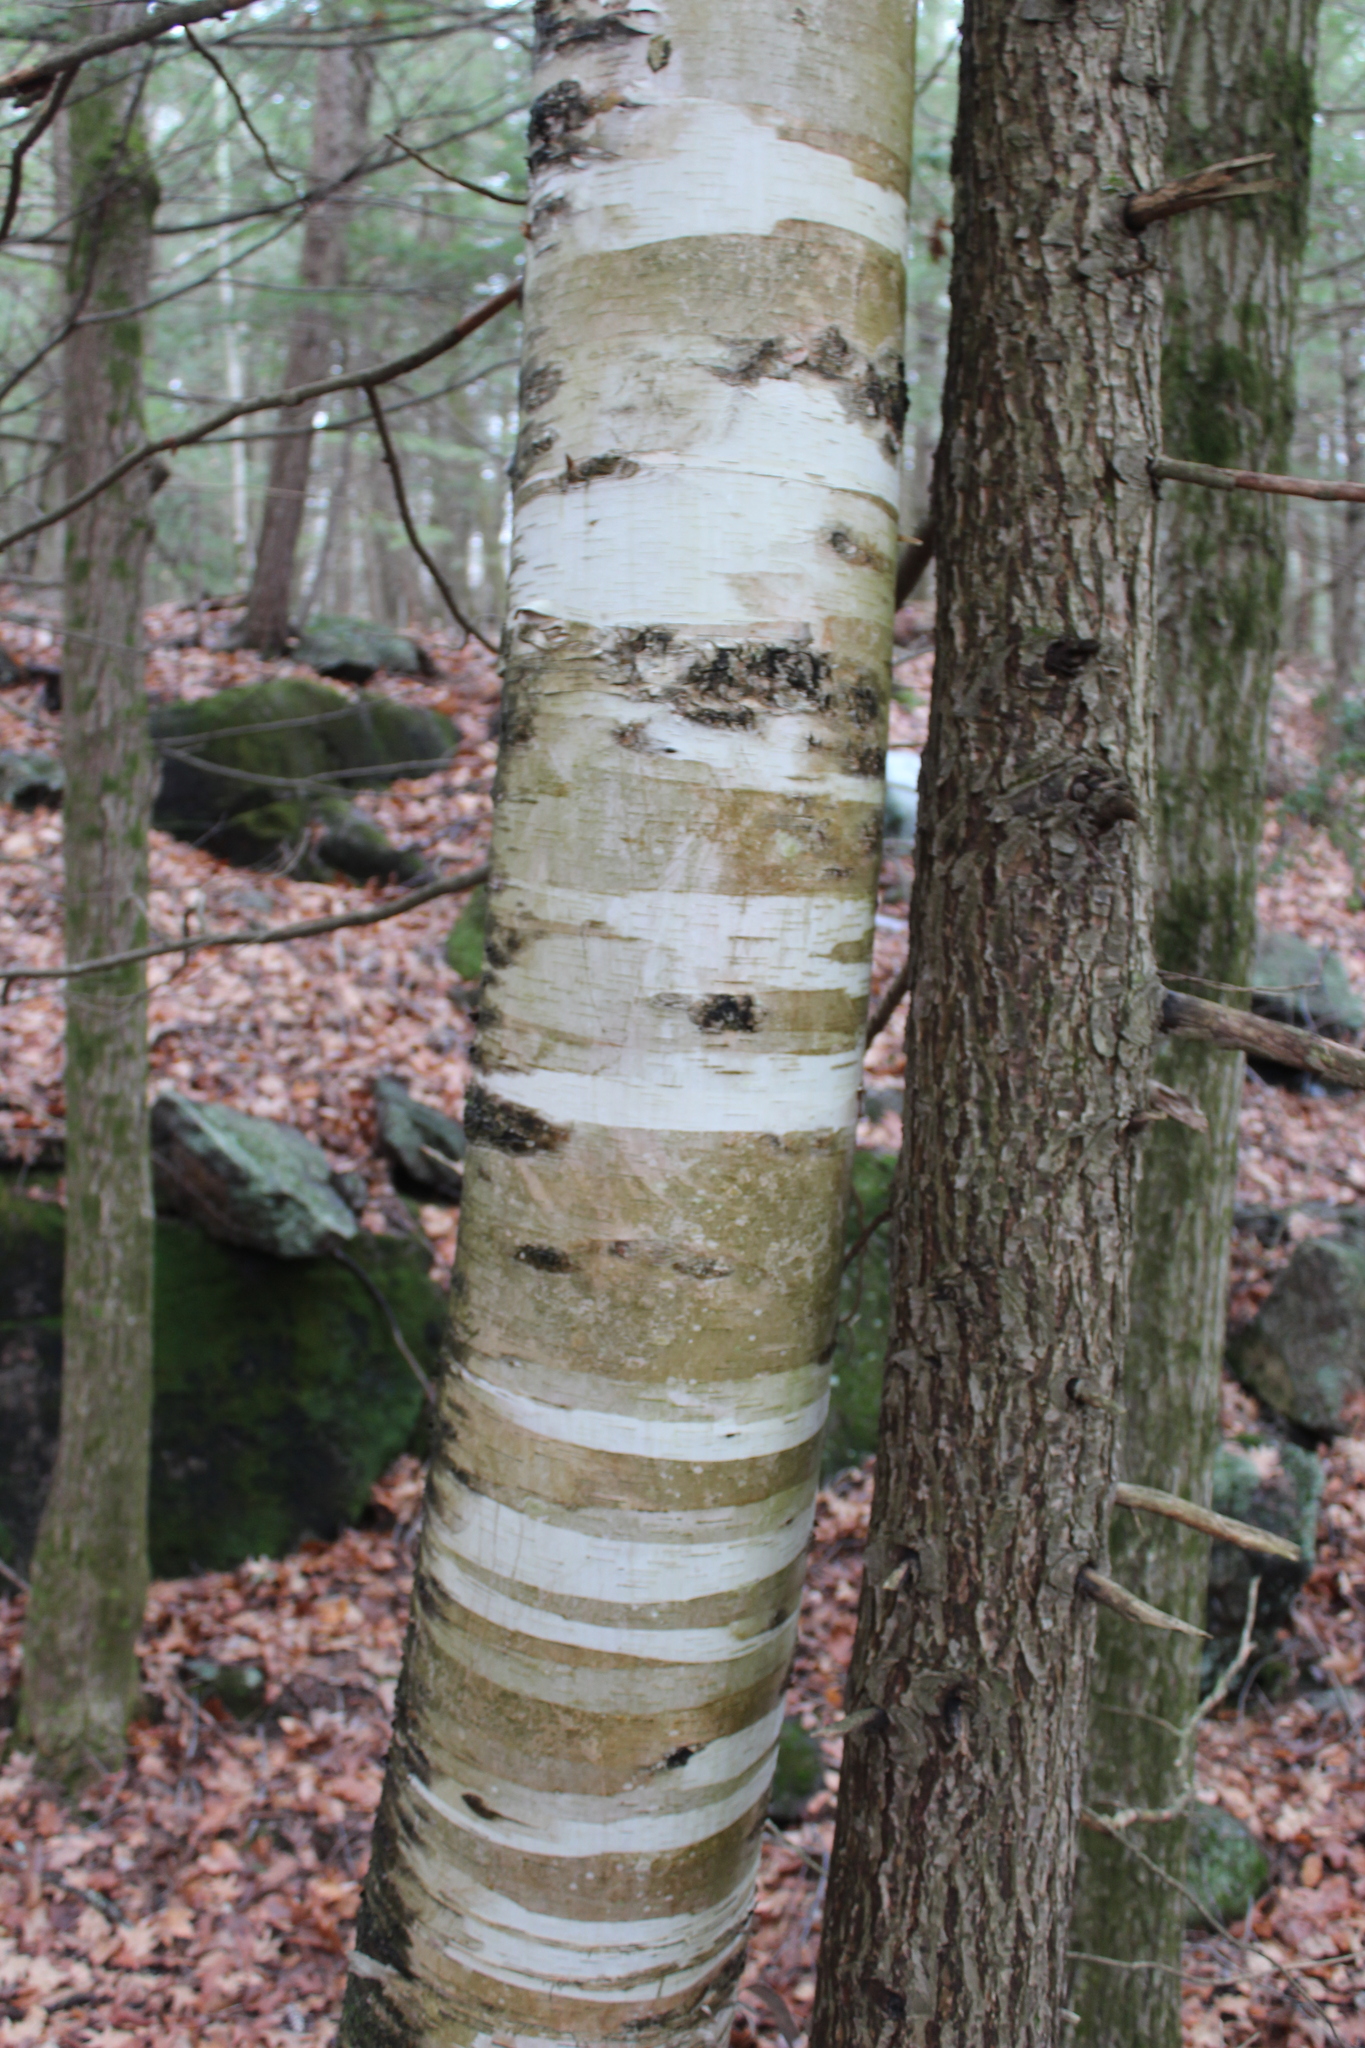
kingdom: Plantae
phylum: Tracheophyta
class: Magnoliopsida
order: Fagales
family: Betulaceae
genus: Betula
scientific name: Betula papyrifera
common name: Paper birch
